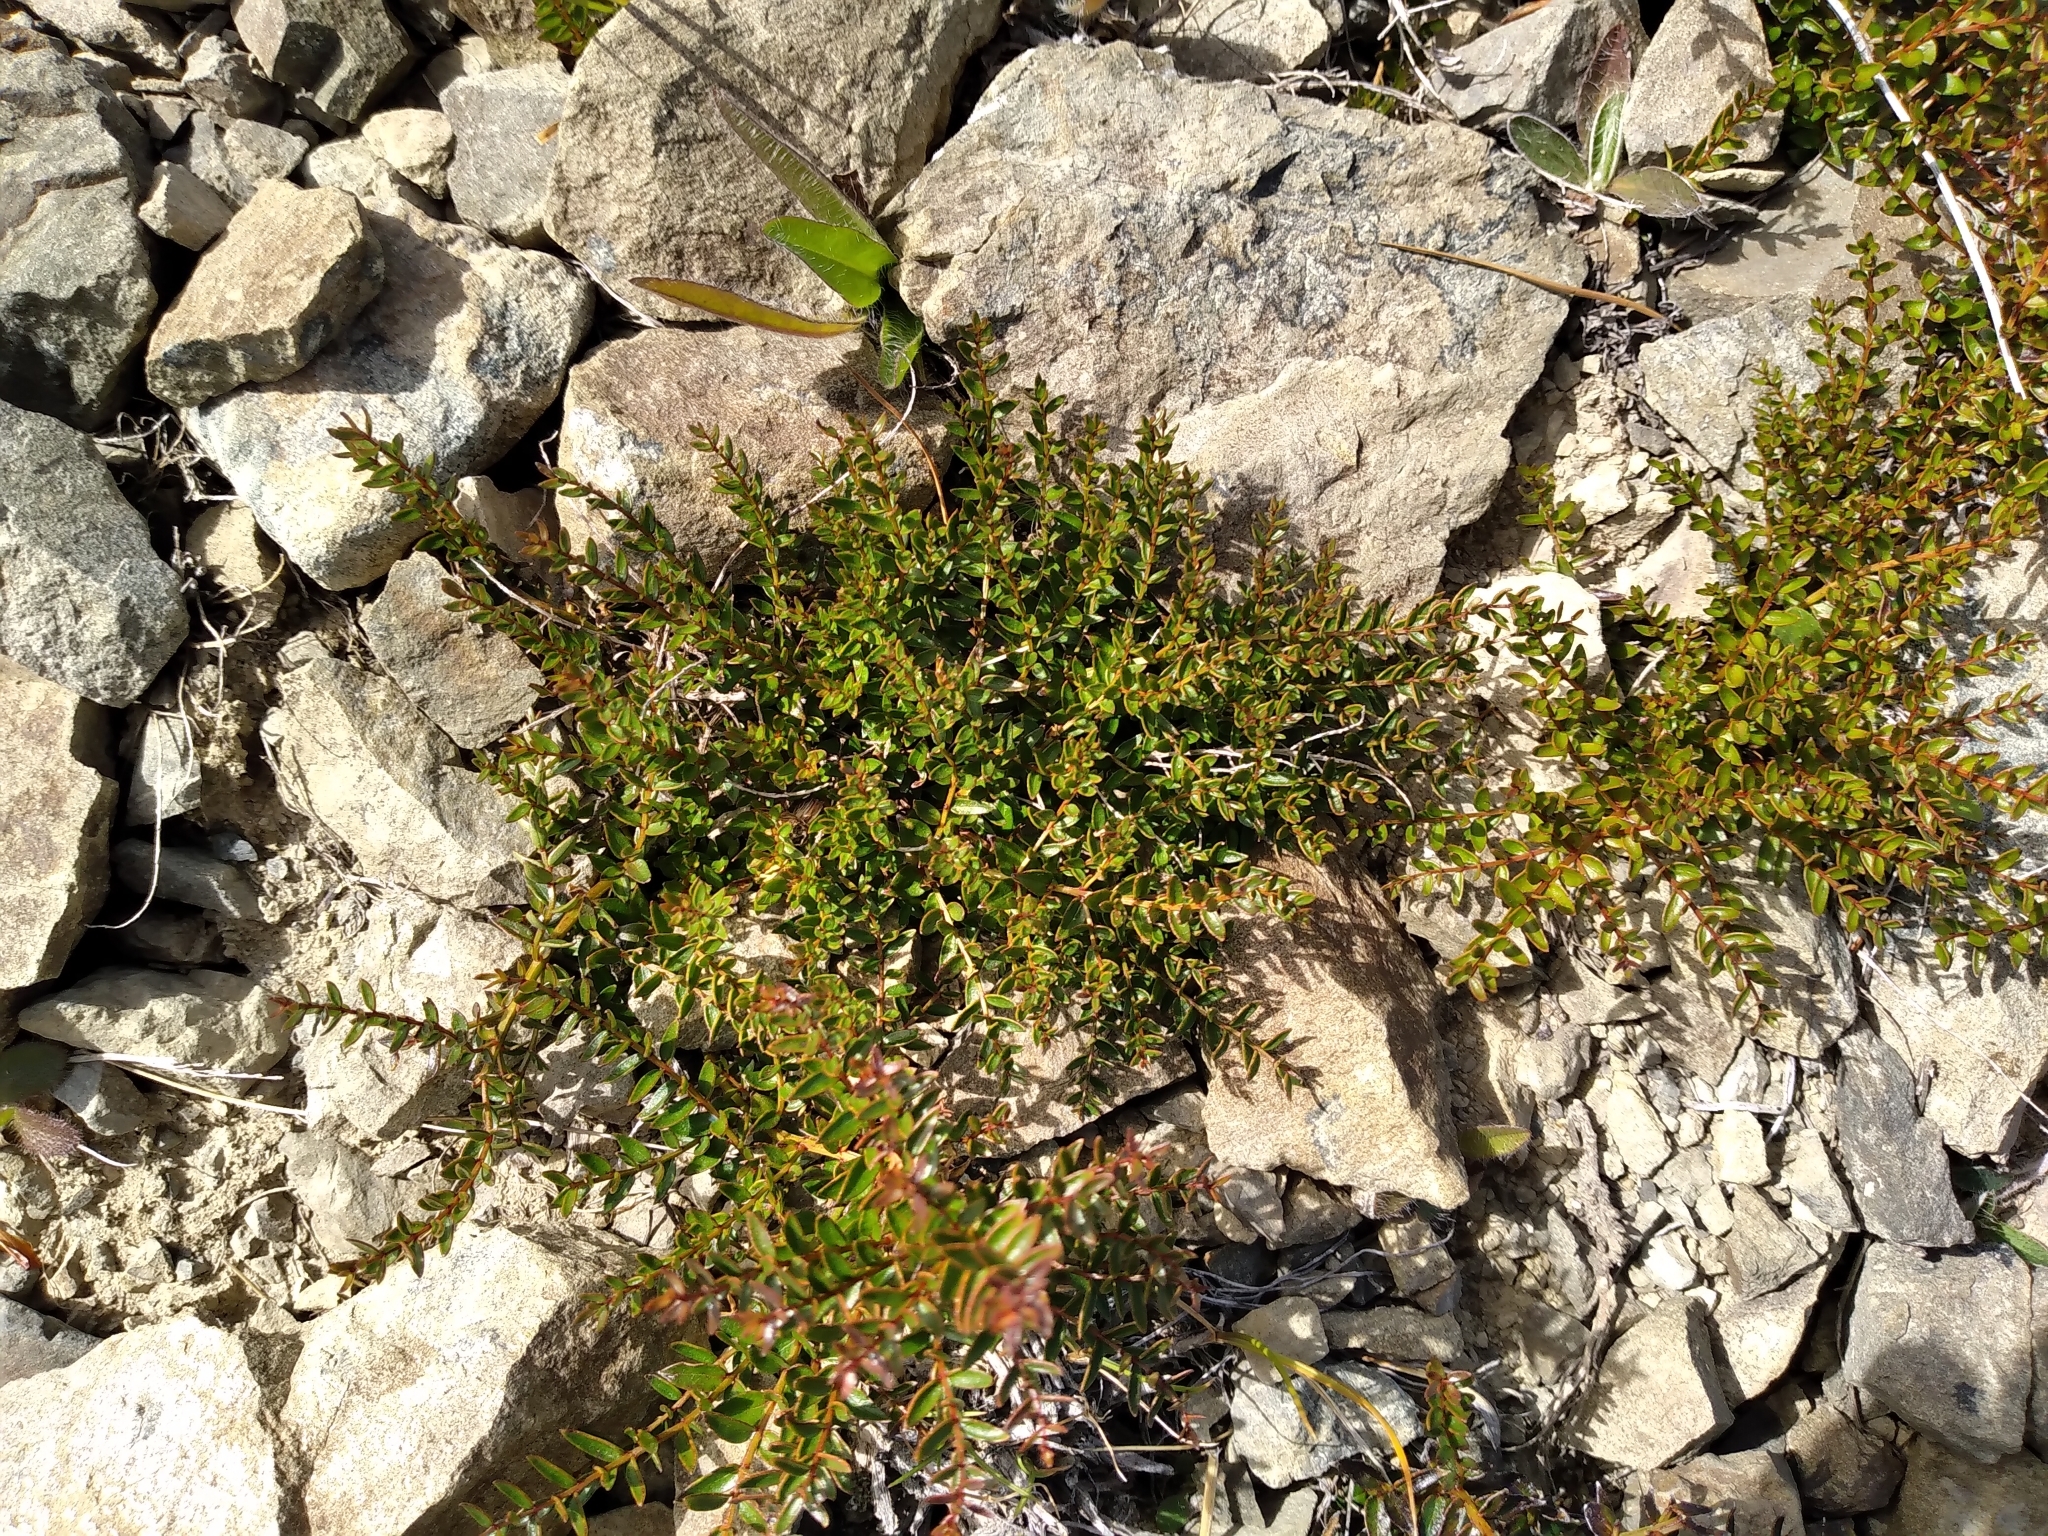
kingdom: Plantae
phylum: Tracheophyta
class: Magnoliopsida
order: Cucurbitales
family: Coriariaceae
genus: Coriaria
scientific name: Coriaria plumosa
